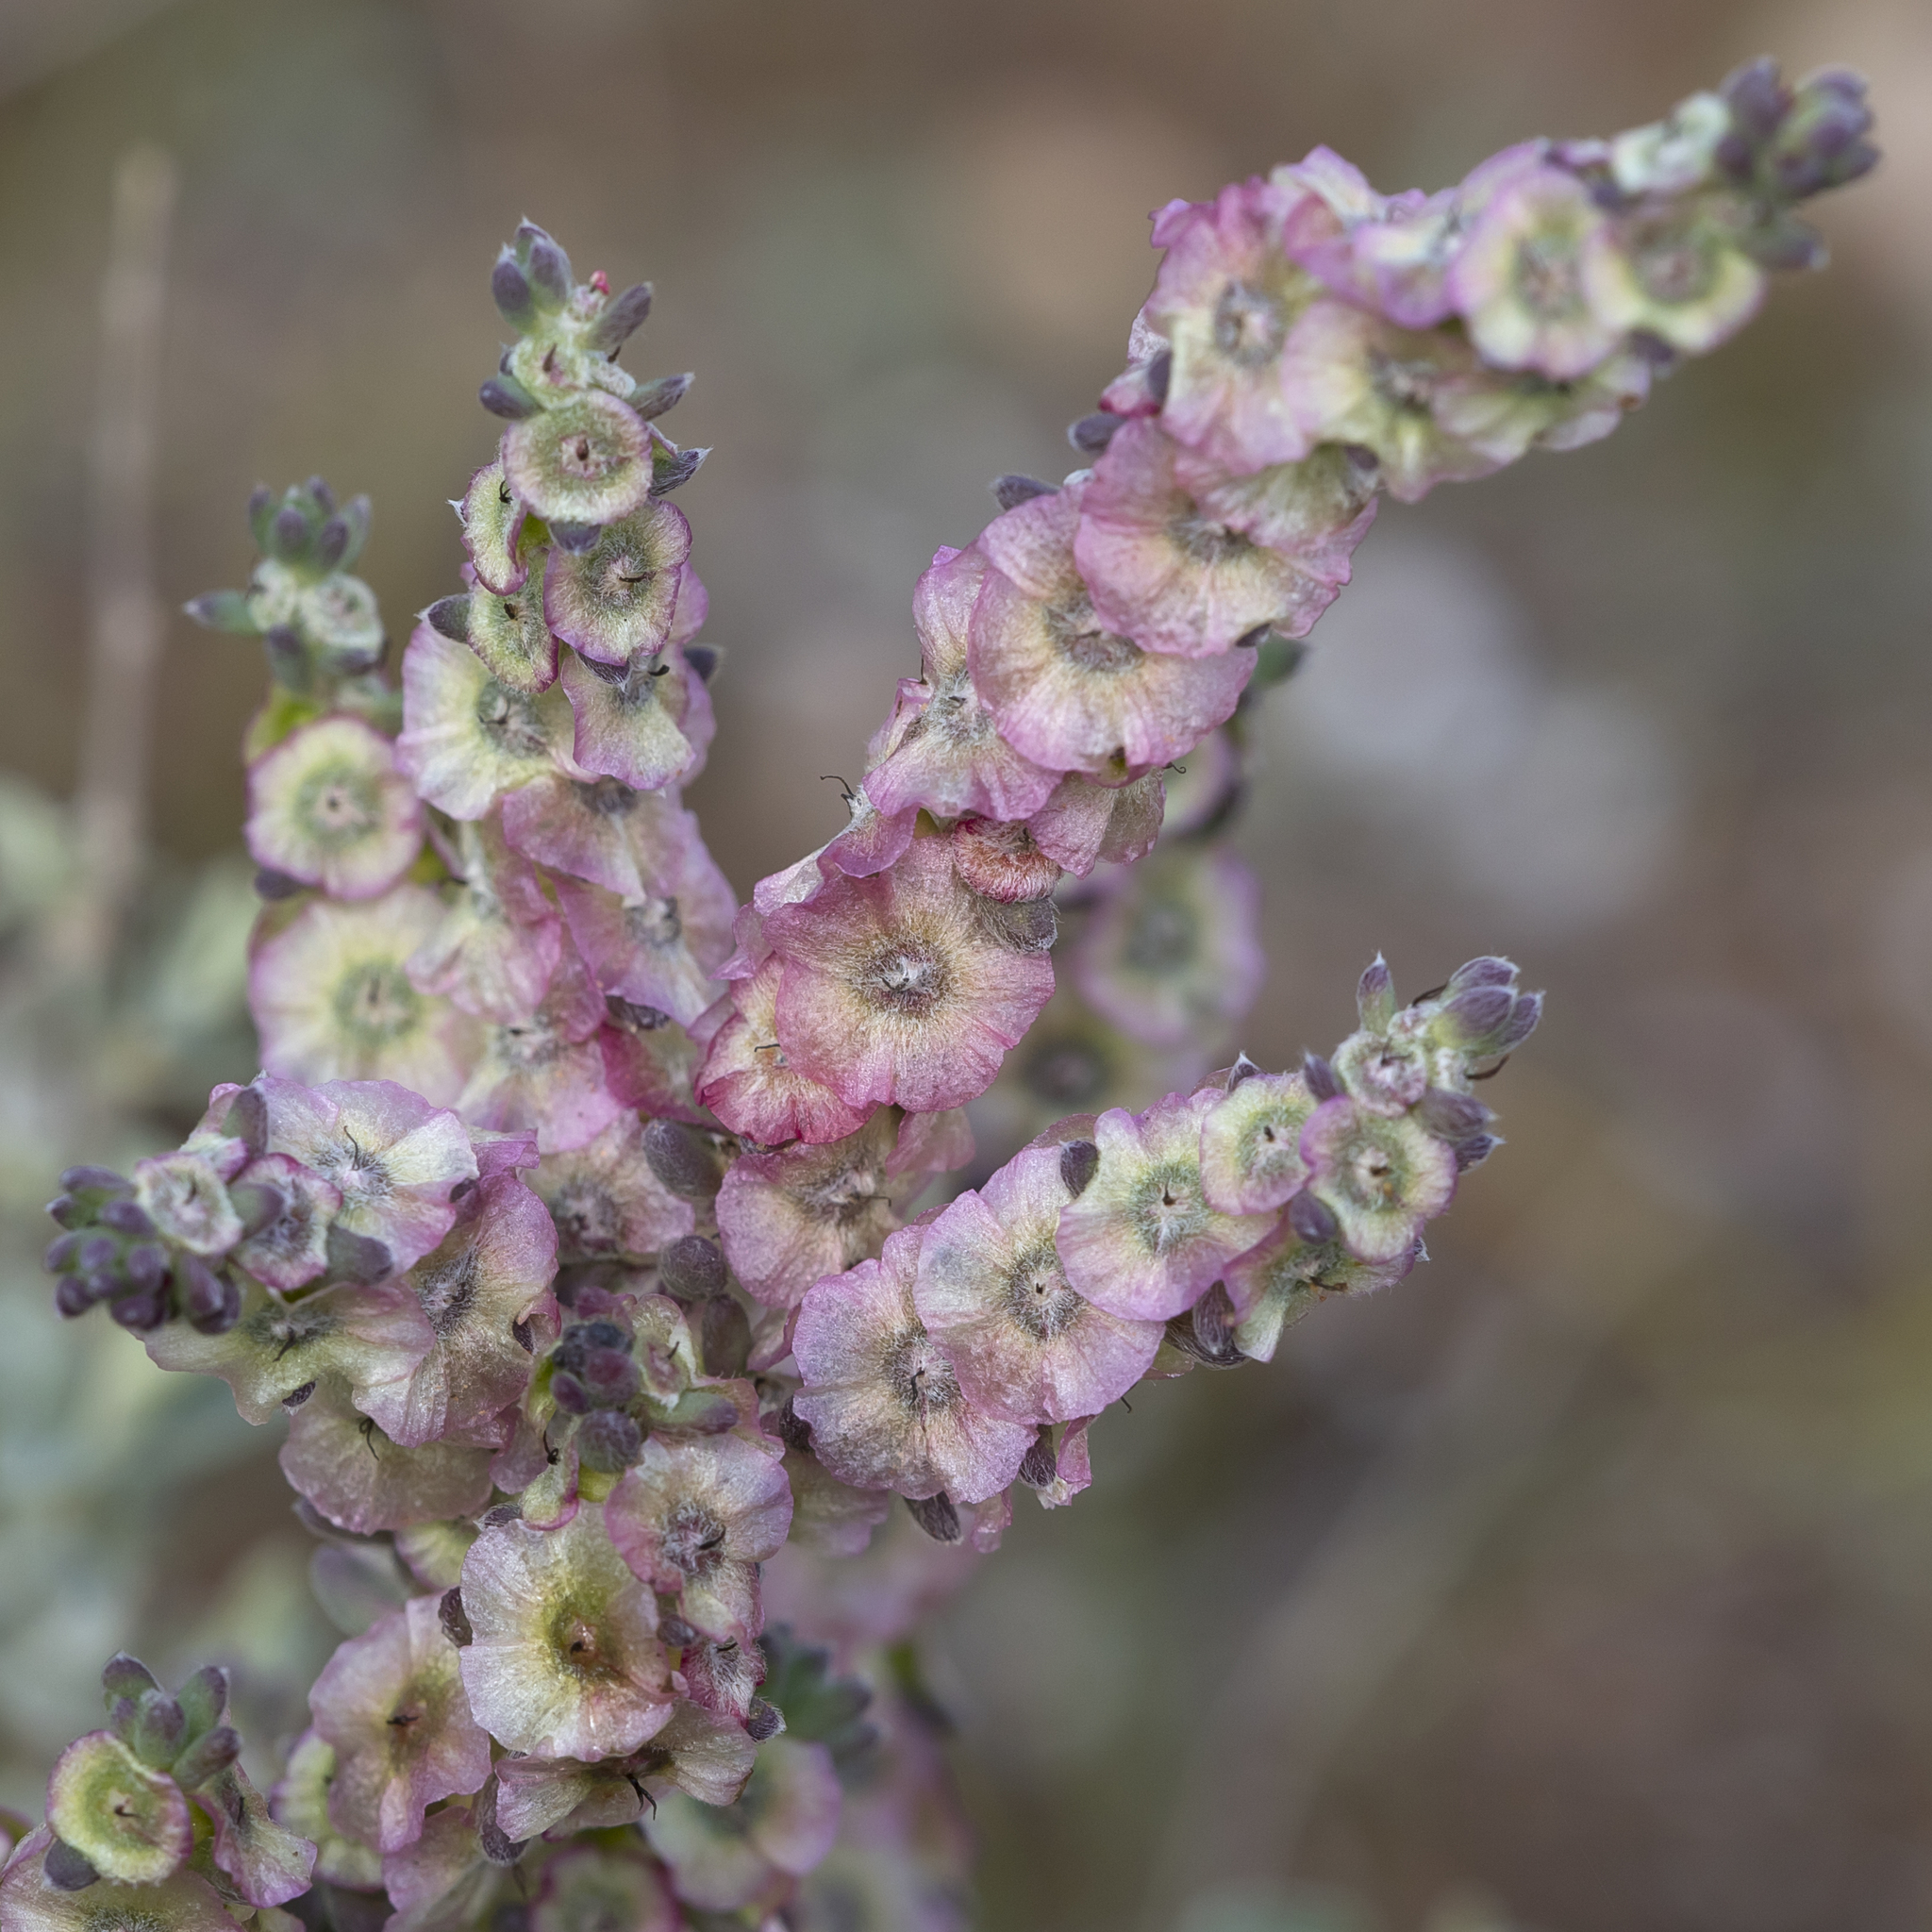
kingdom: Plantae
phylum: Tracheophyta
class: Magnoliopsida
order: Caryophyllales
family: Amaranthaceae
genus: Maireana
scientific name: Maireana trichoptera
